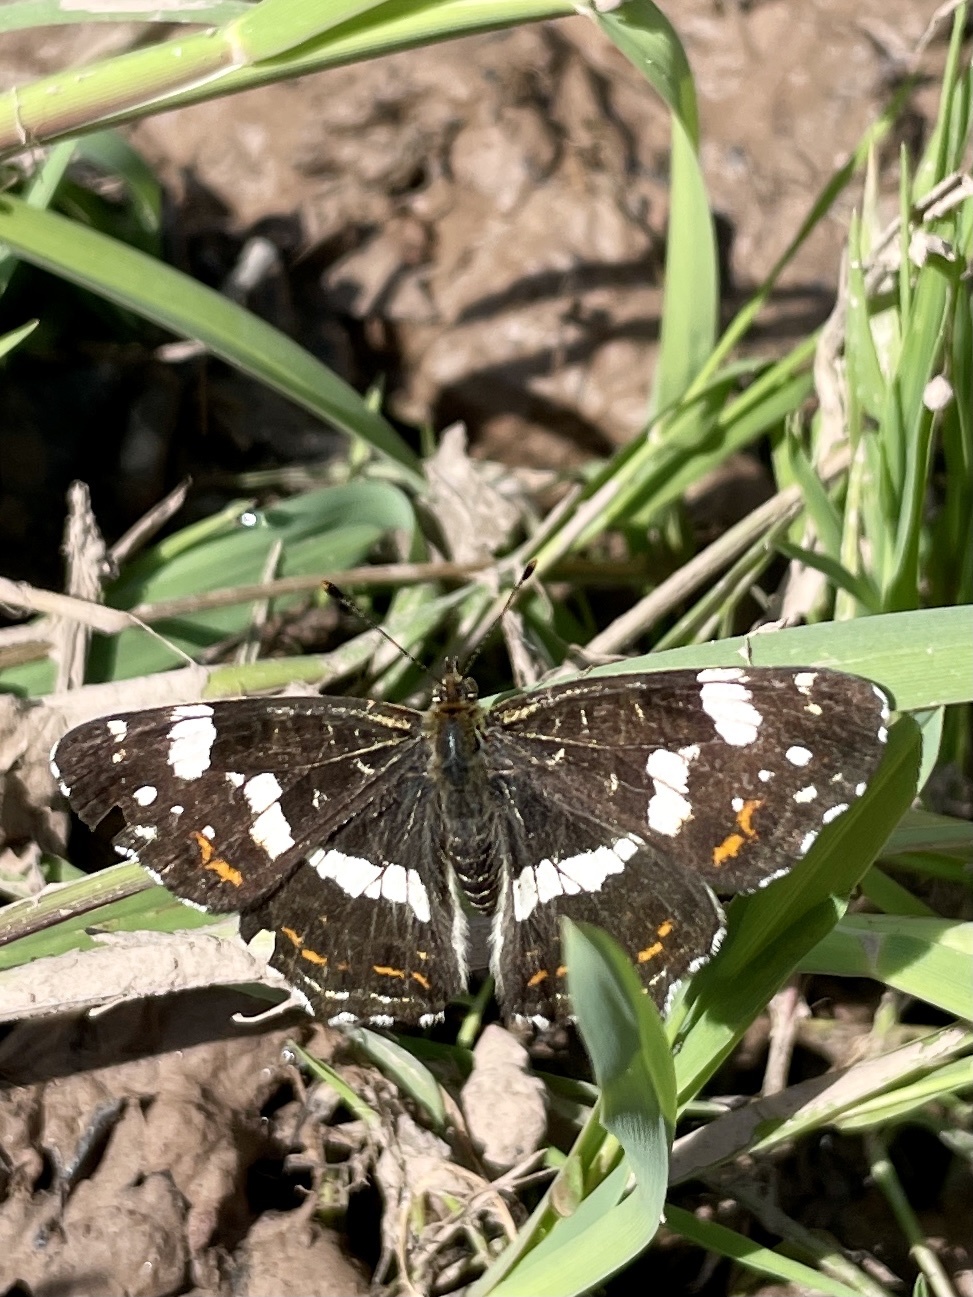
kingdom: Animalia
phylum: Arthropoda
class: Insecta
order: Lepidoptera
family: Nymphalidae
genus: Araschnia
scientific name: Araschnia levana
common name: Map butterfly
